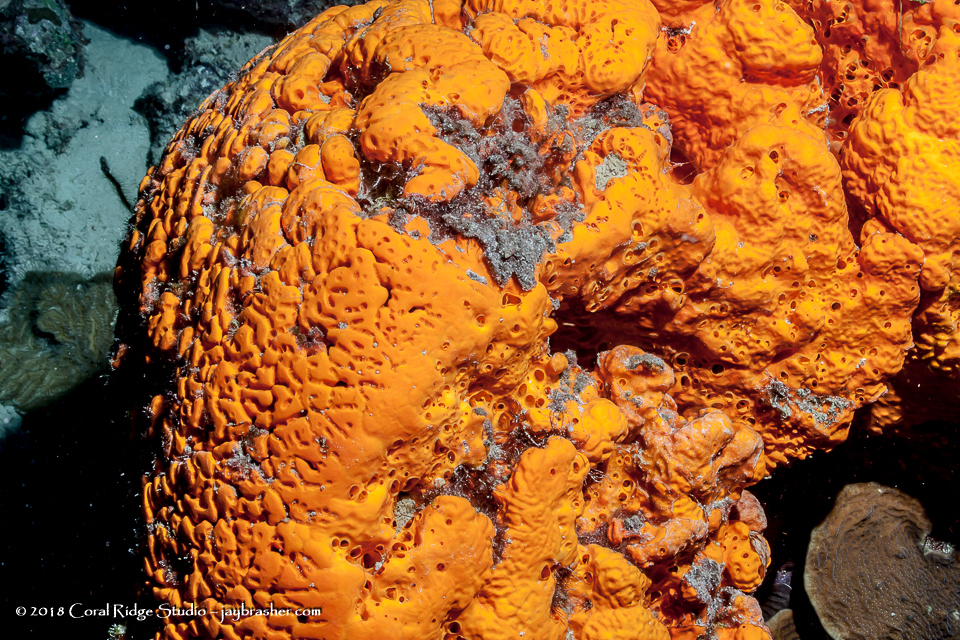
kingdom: Animalia
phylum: Porifera
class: Demospongiae
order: Agelasida
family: Agelasidae
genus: Agelas
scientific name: Agelas clathrodes
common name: Orange elephant ear sponge
